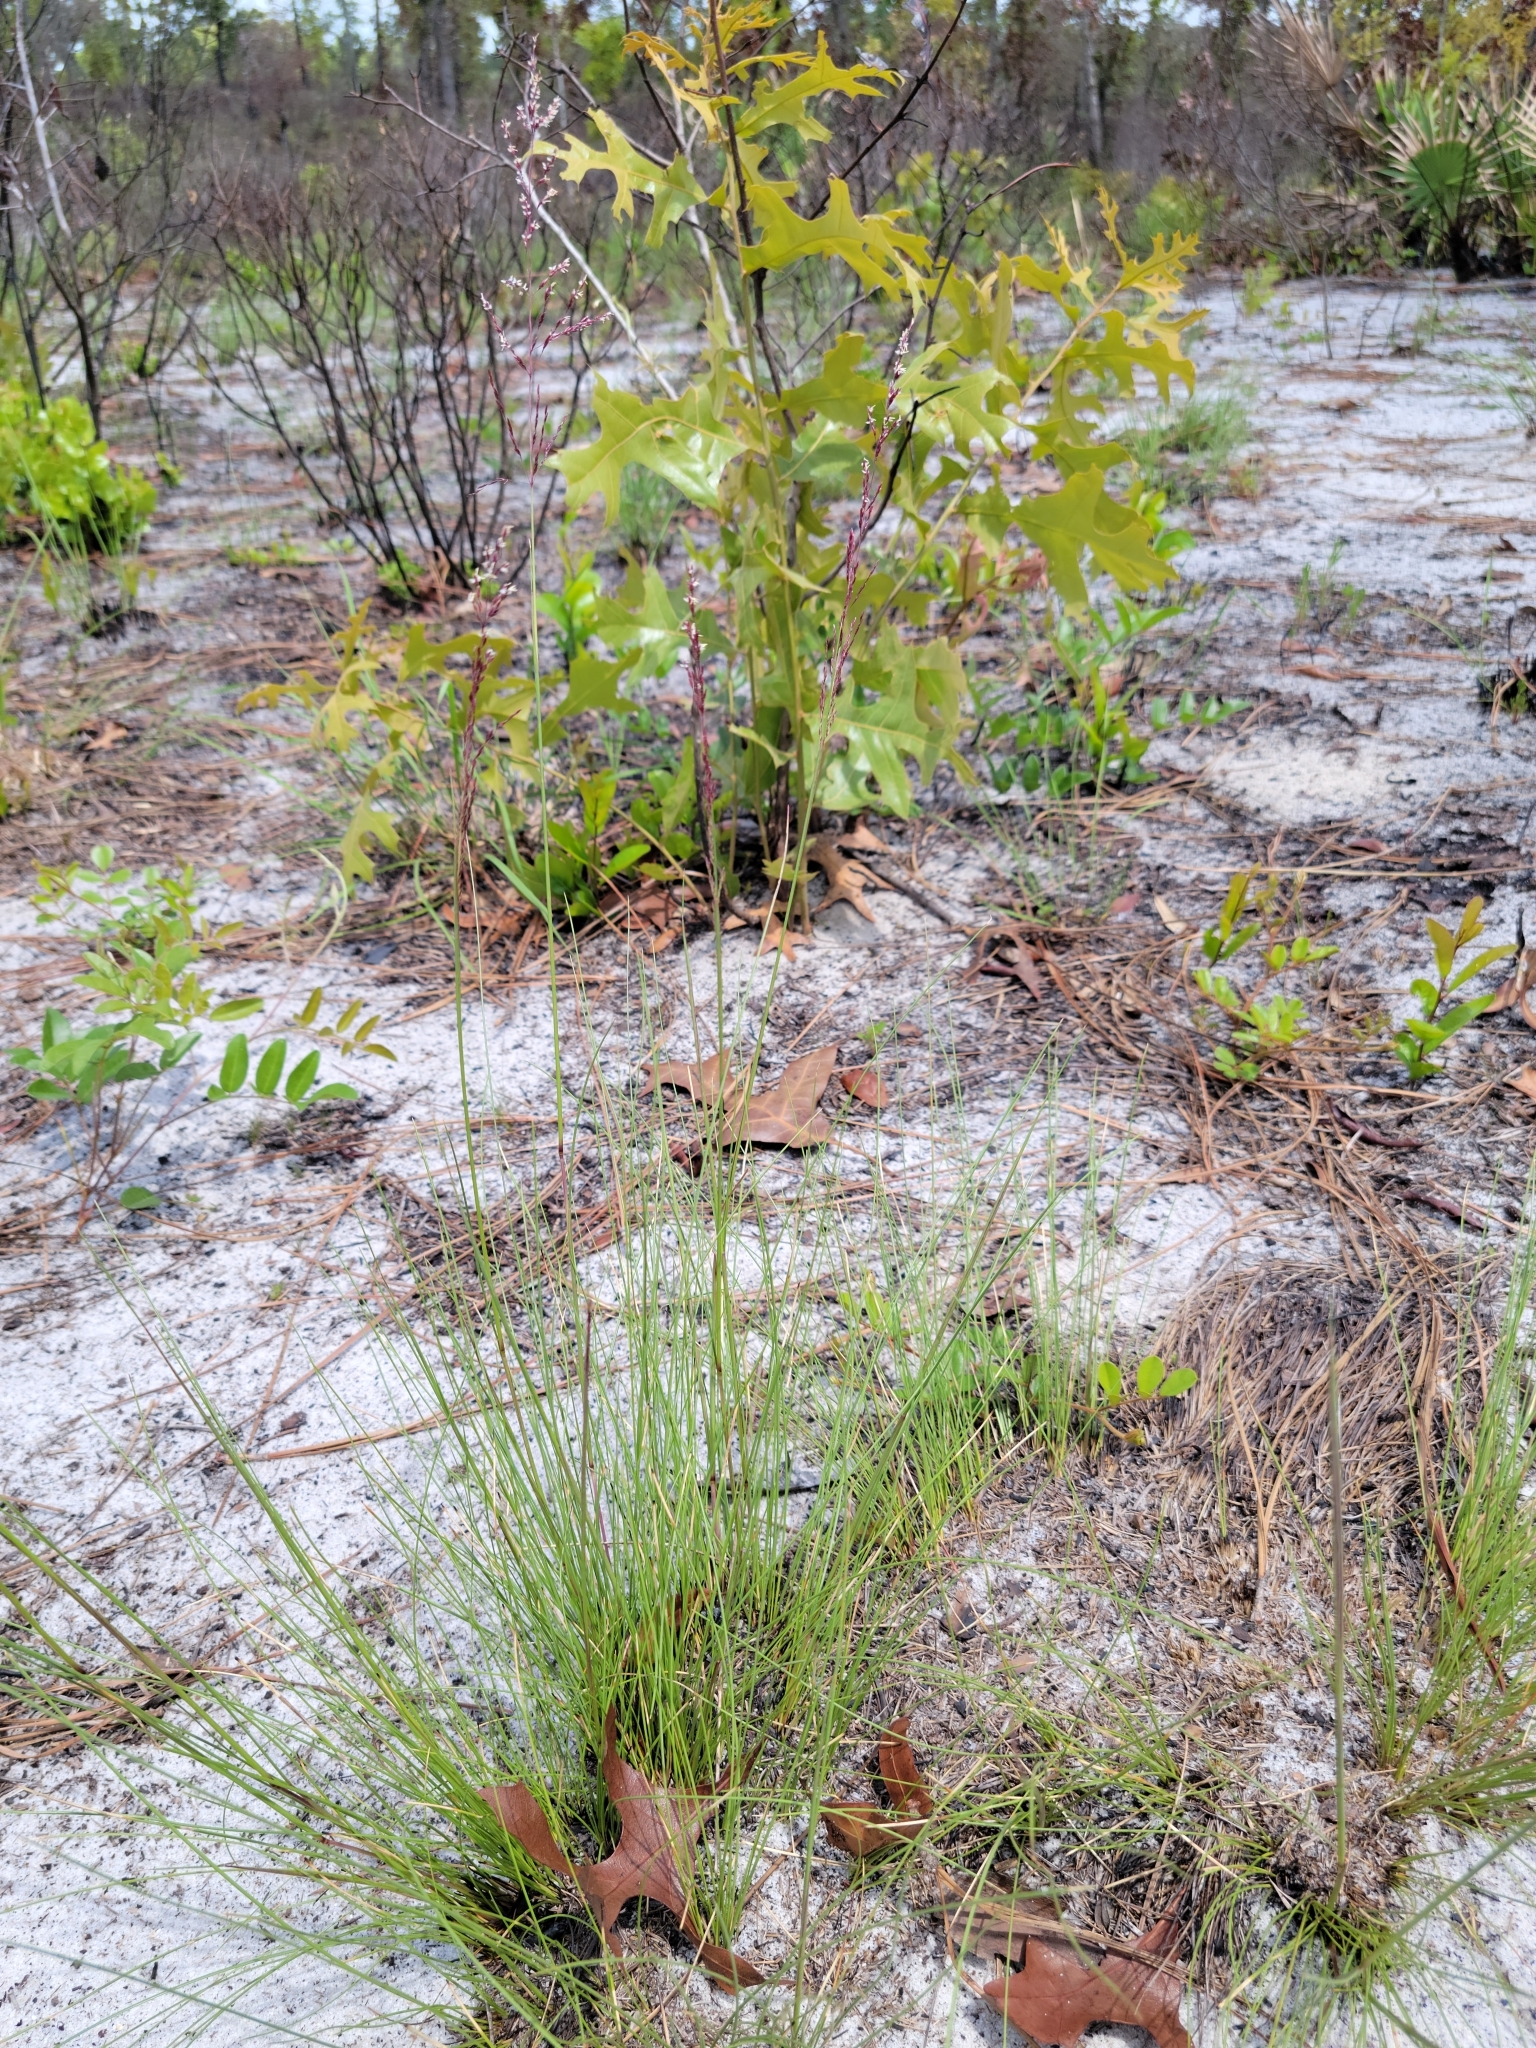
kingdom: Plantae
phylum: Tracheophyta
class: Liliopsida
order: Poales
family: Poaceae
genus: Sporobolus
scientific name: Sporobolus junceus
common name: Lizard grass
